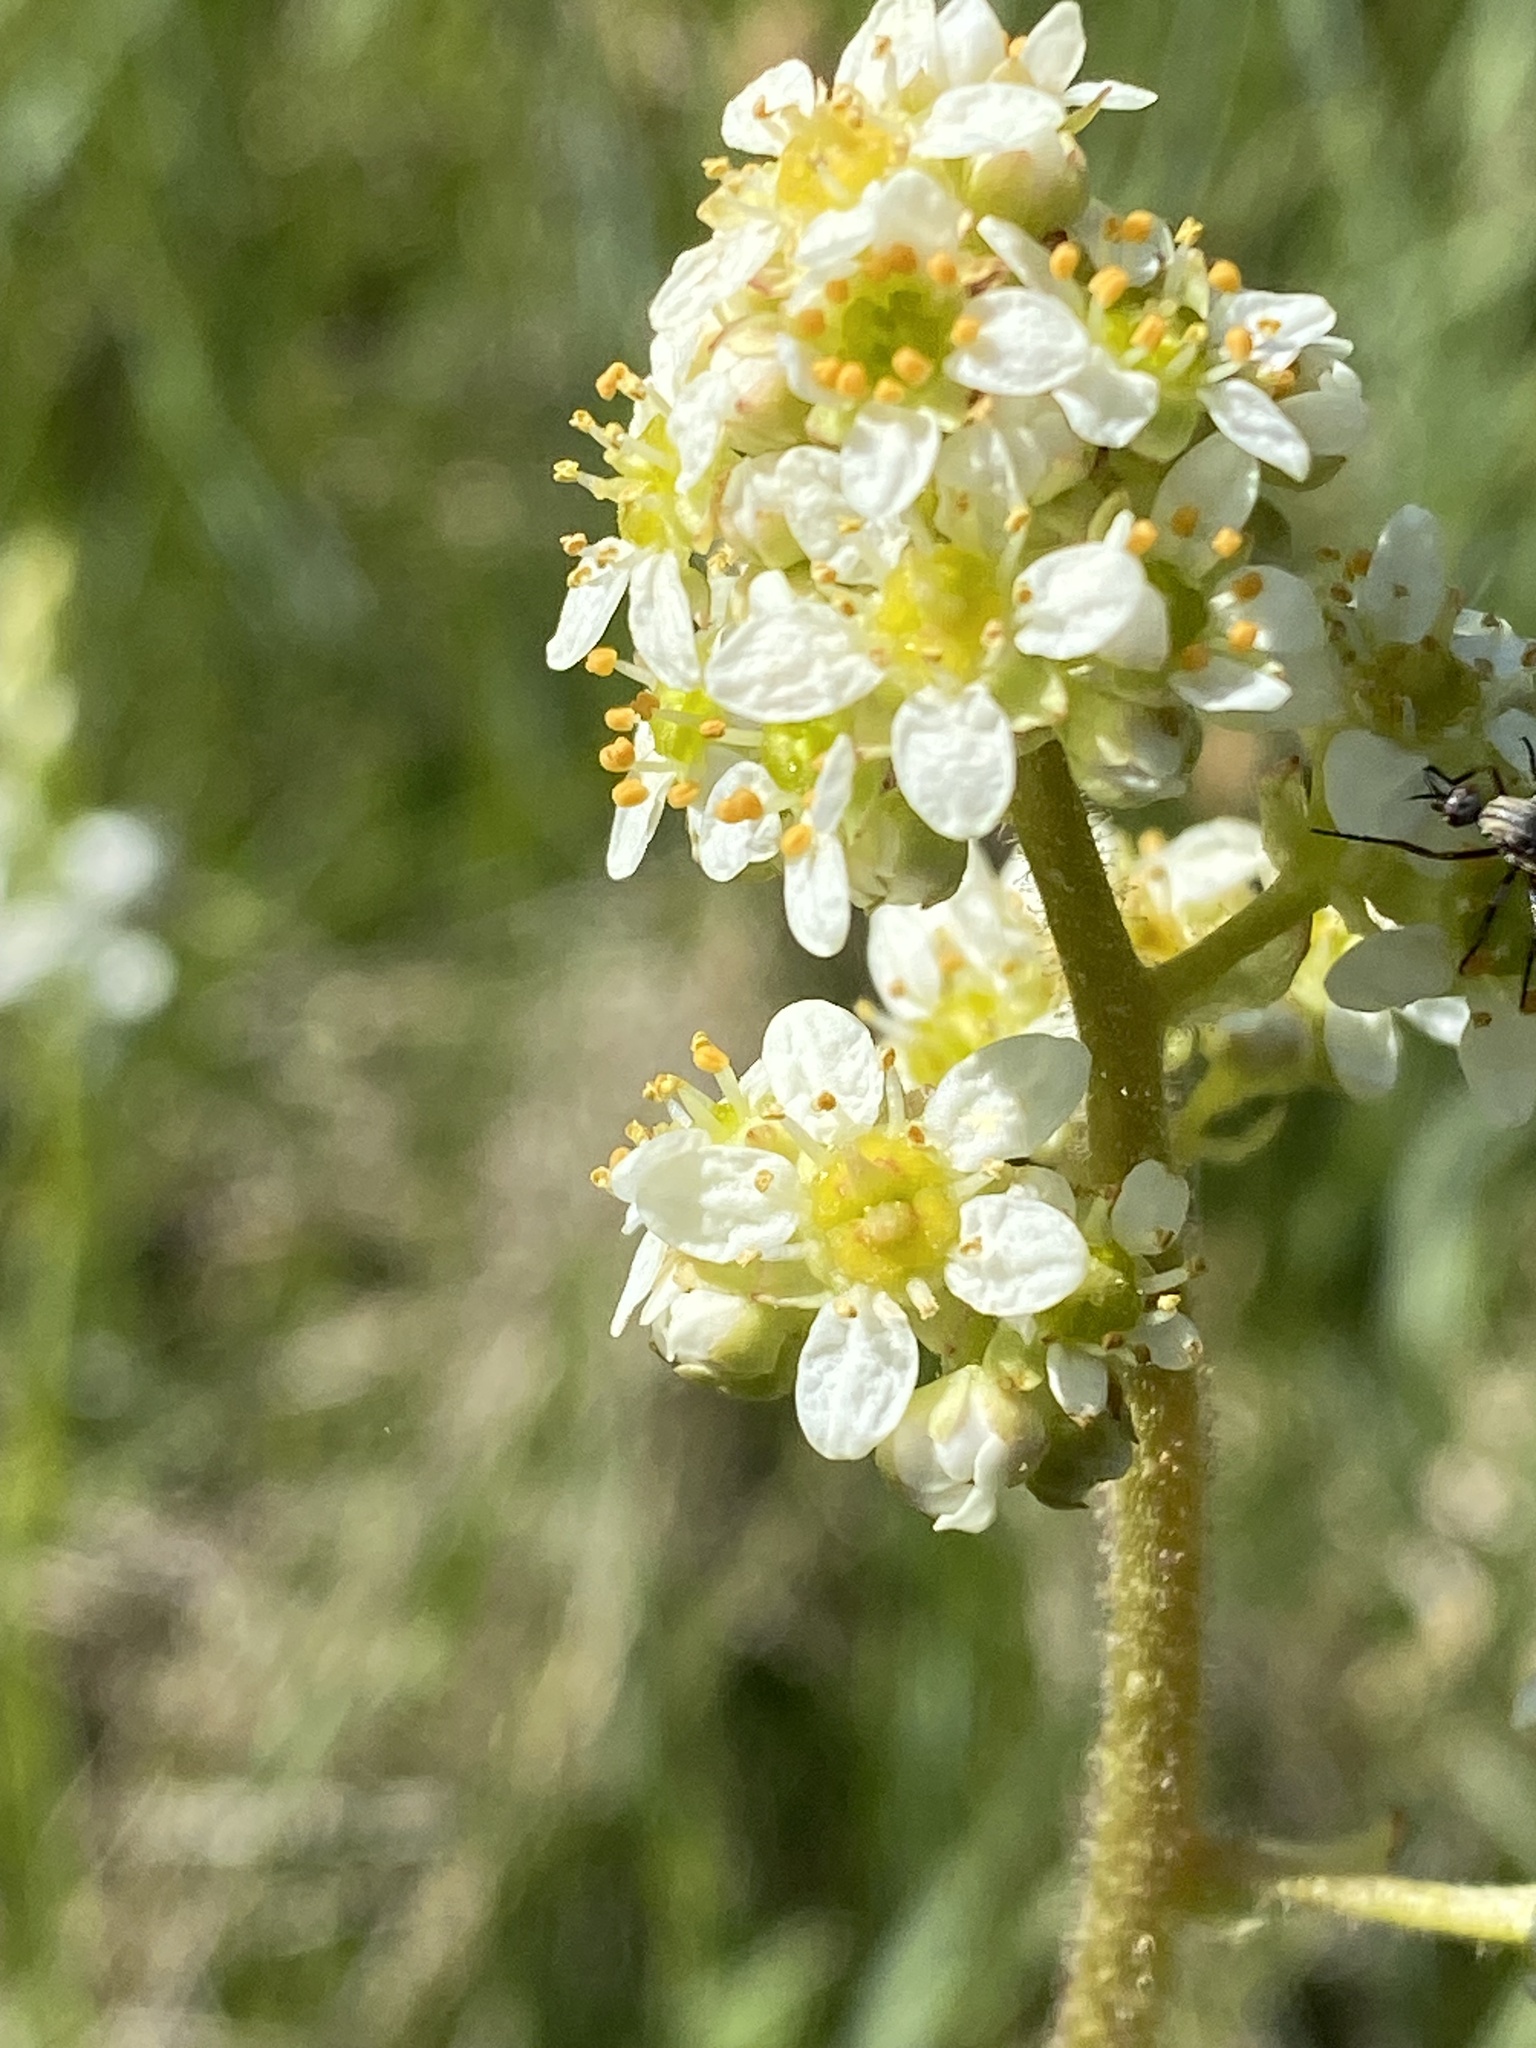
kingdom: Plantae
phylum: Tracheophyta
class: Magnoliopsida
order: Saxifragales
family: Saxifragaceae
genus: Micranthes
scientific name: Micranthes oregana
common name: Bog saxifrage
